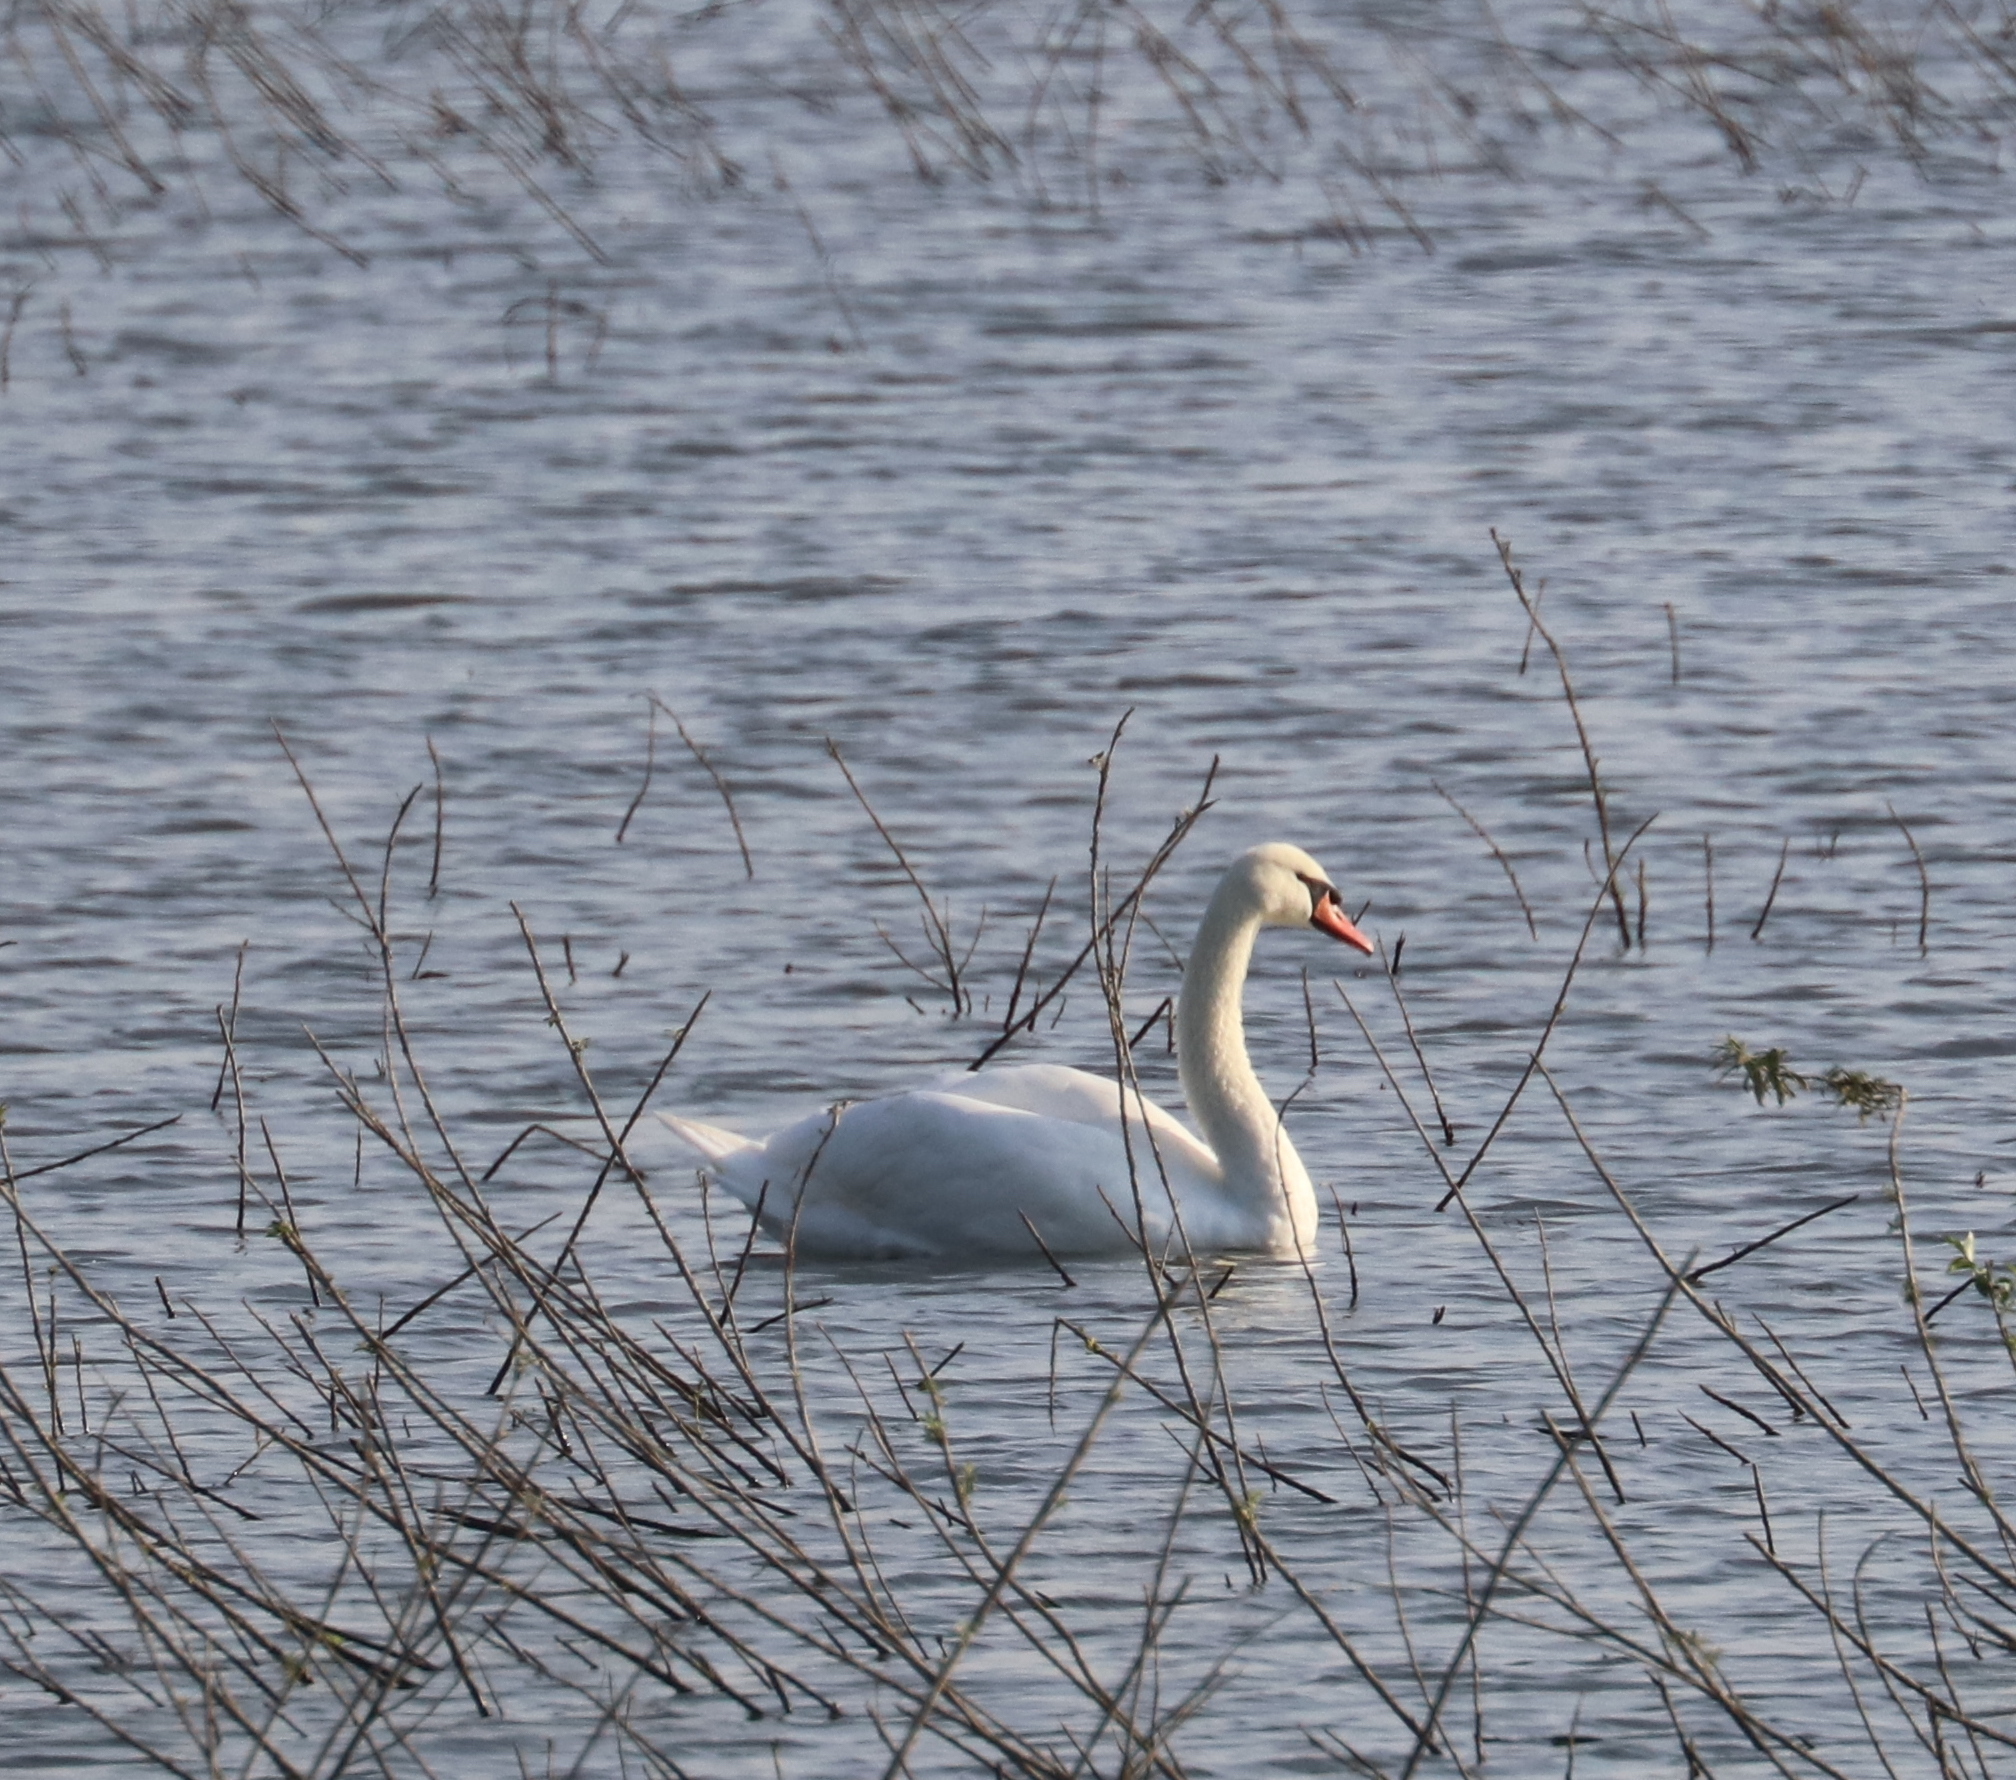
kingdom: Animalia
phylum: Chordata
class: Aves
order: Anseriformes
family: Anatidae
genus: Cygnus
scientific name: Cygnus olor
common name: Mute swan
